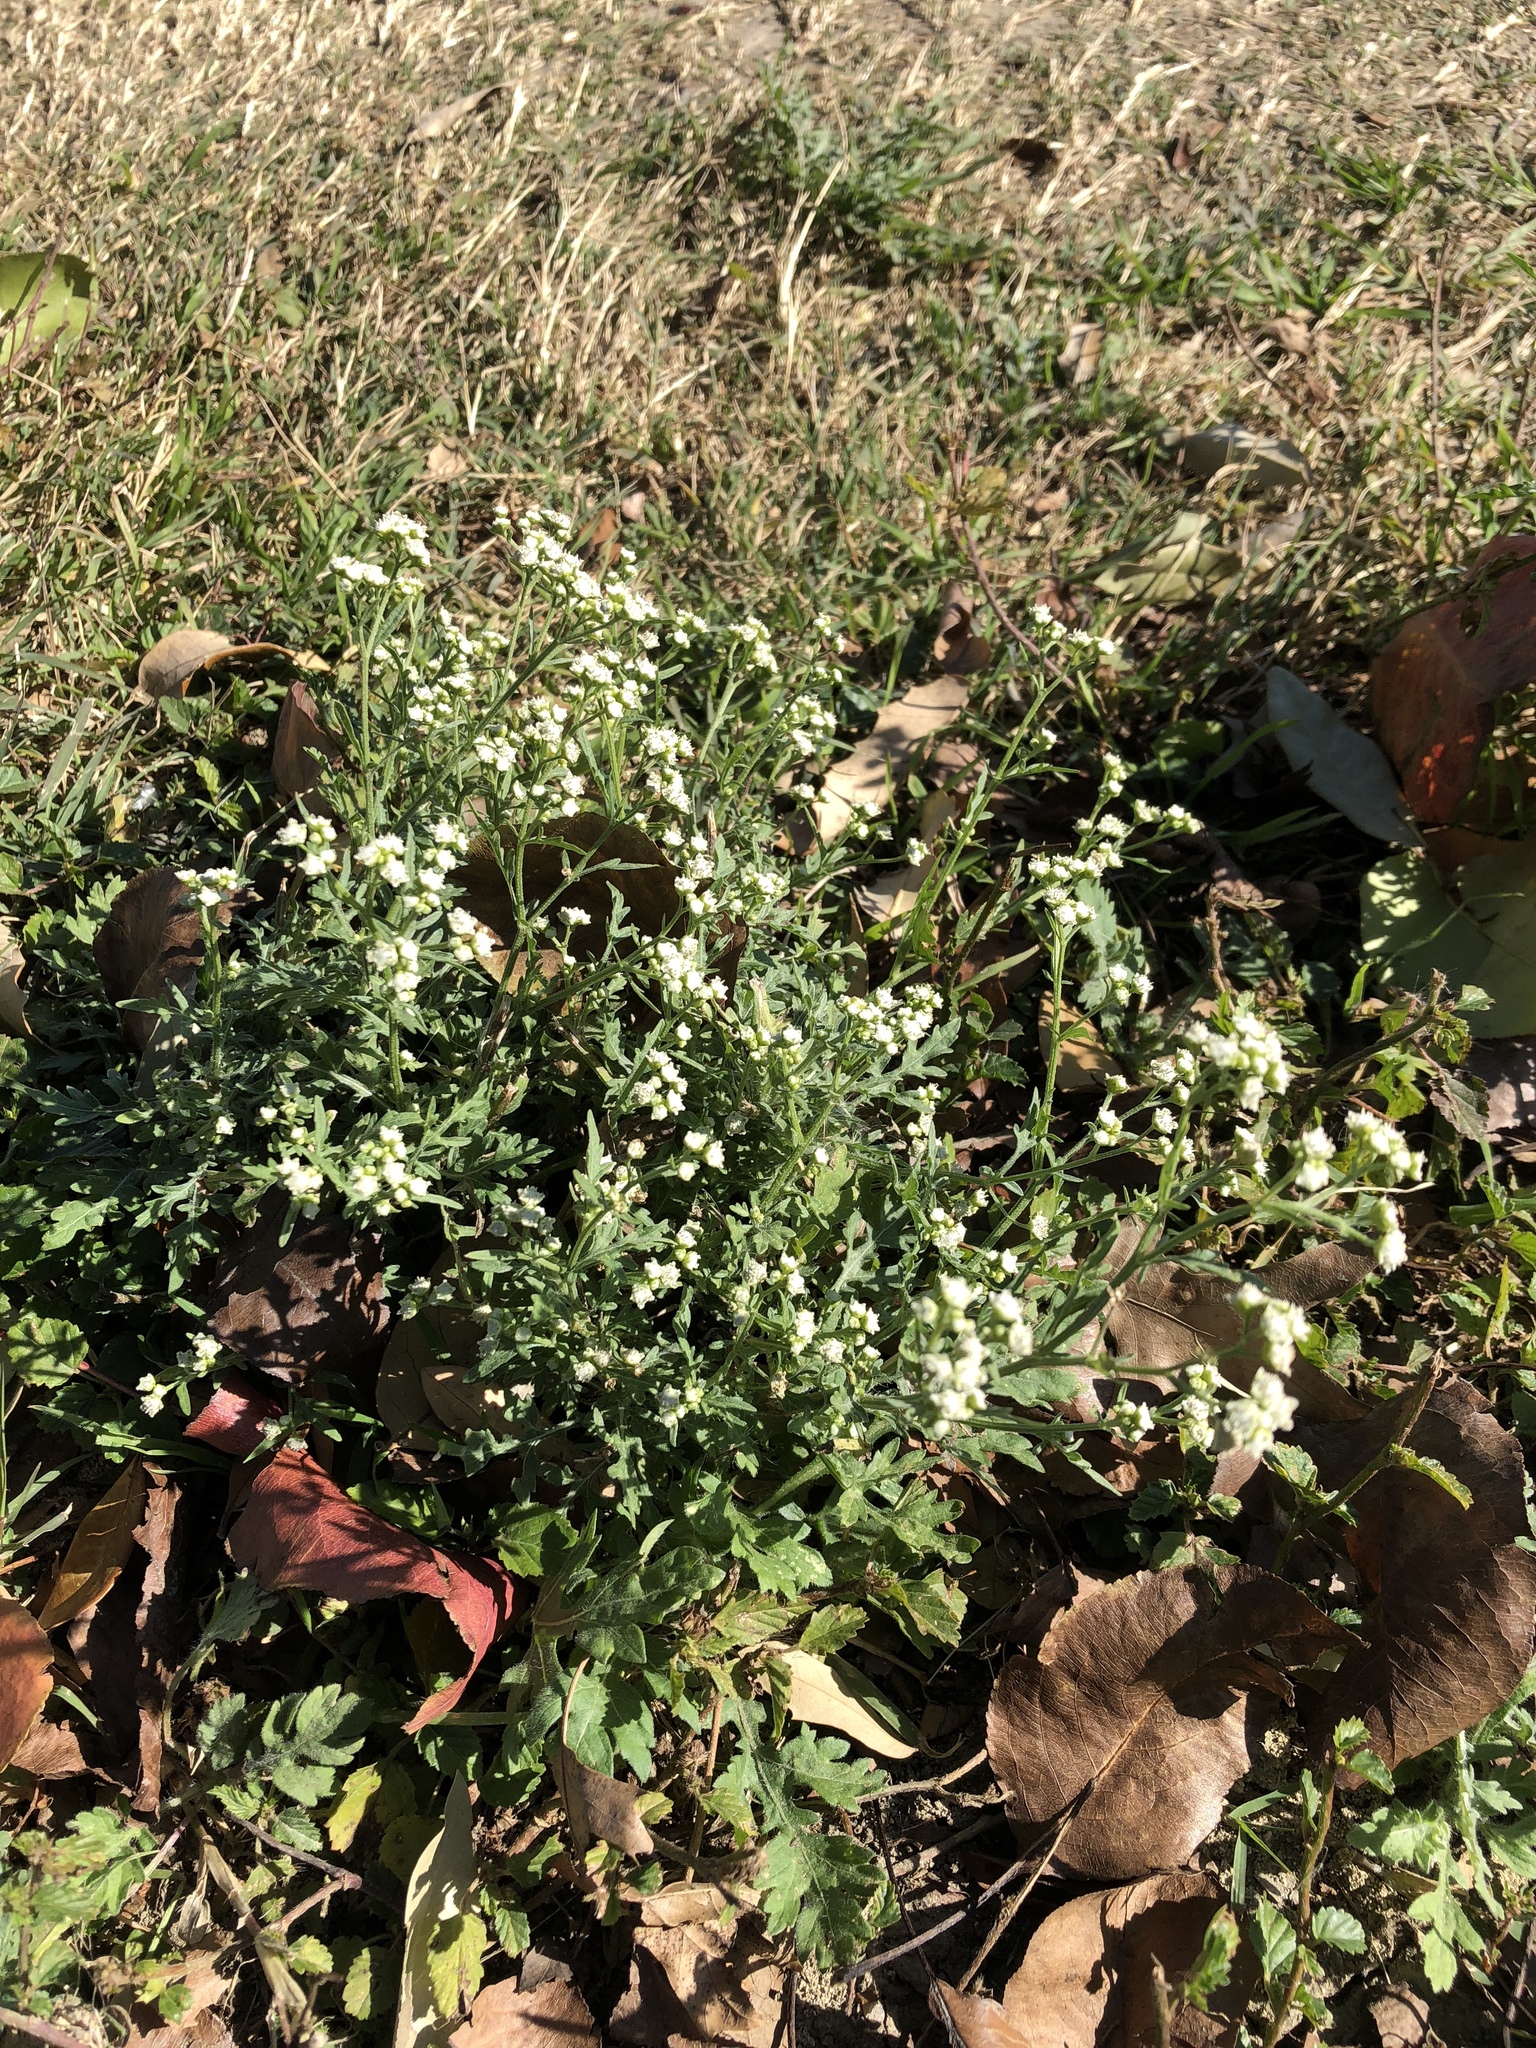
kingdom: Plantae
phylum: Tracheophyta
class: Magnoliopsida
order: Asterales
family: Asteraceae
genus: Parthenium
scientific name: Parthenium hysterophorus
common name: Santa maria feverfew
